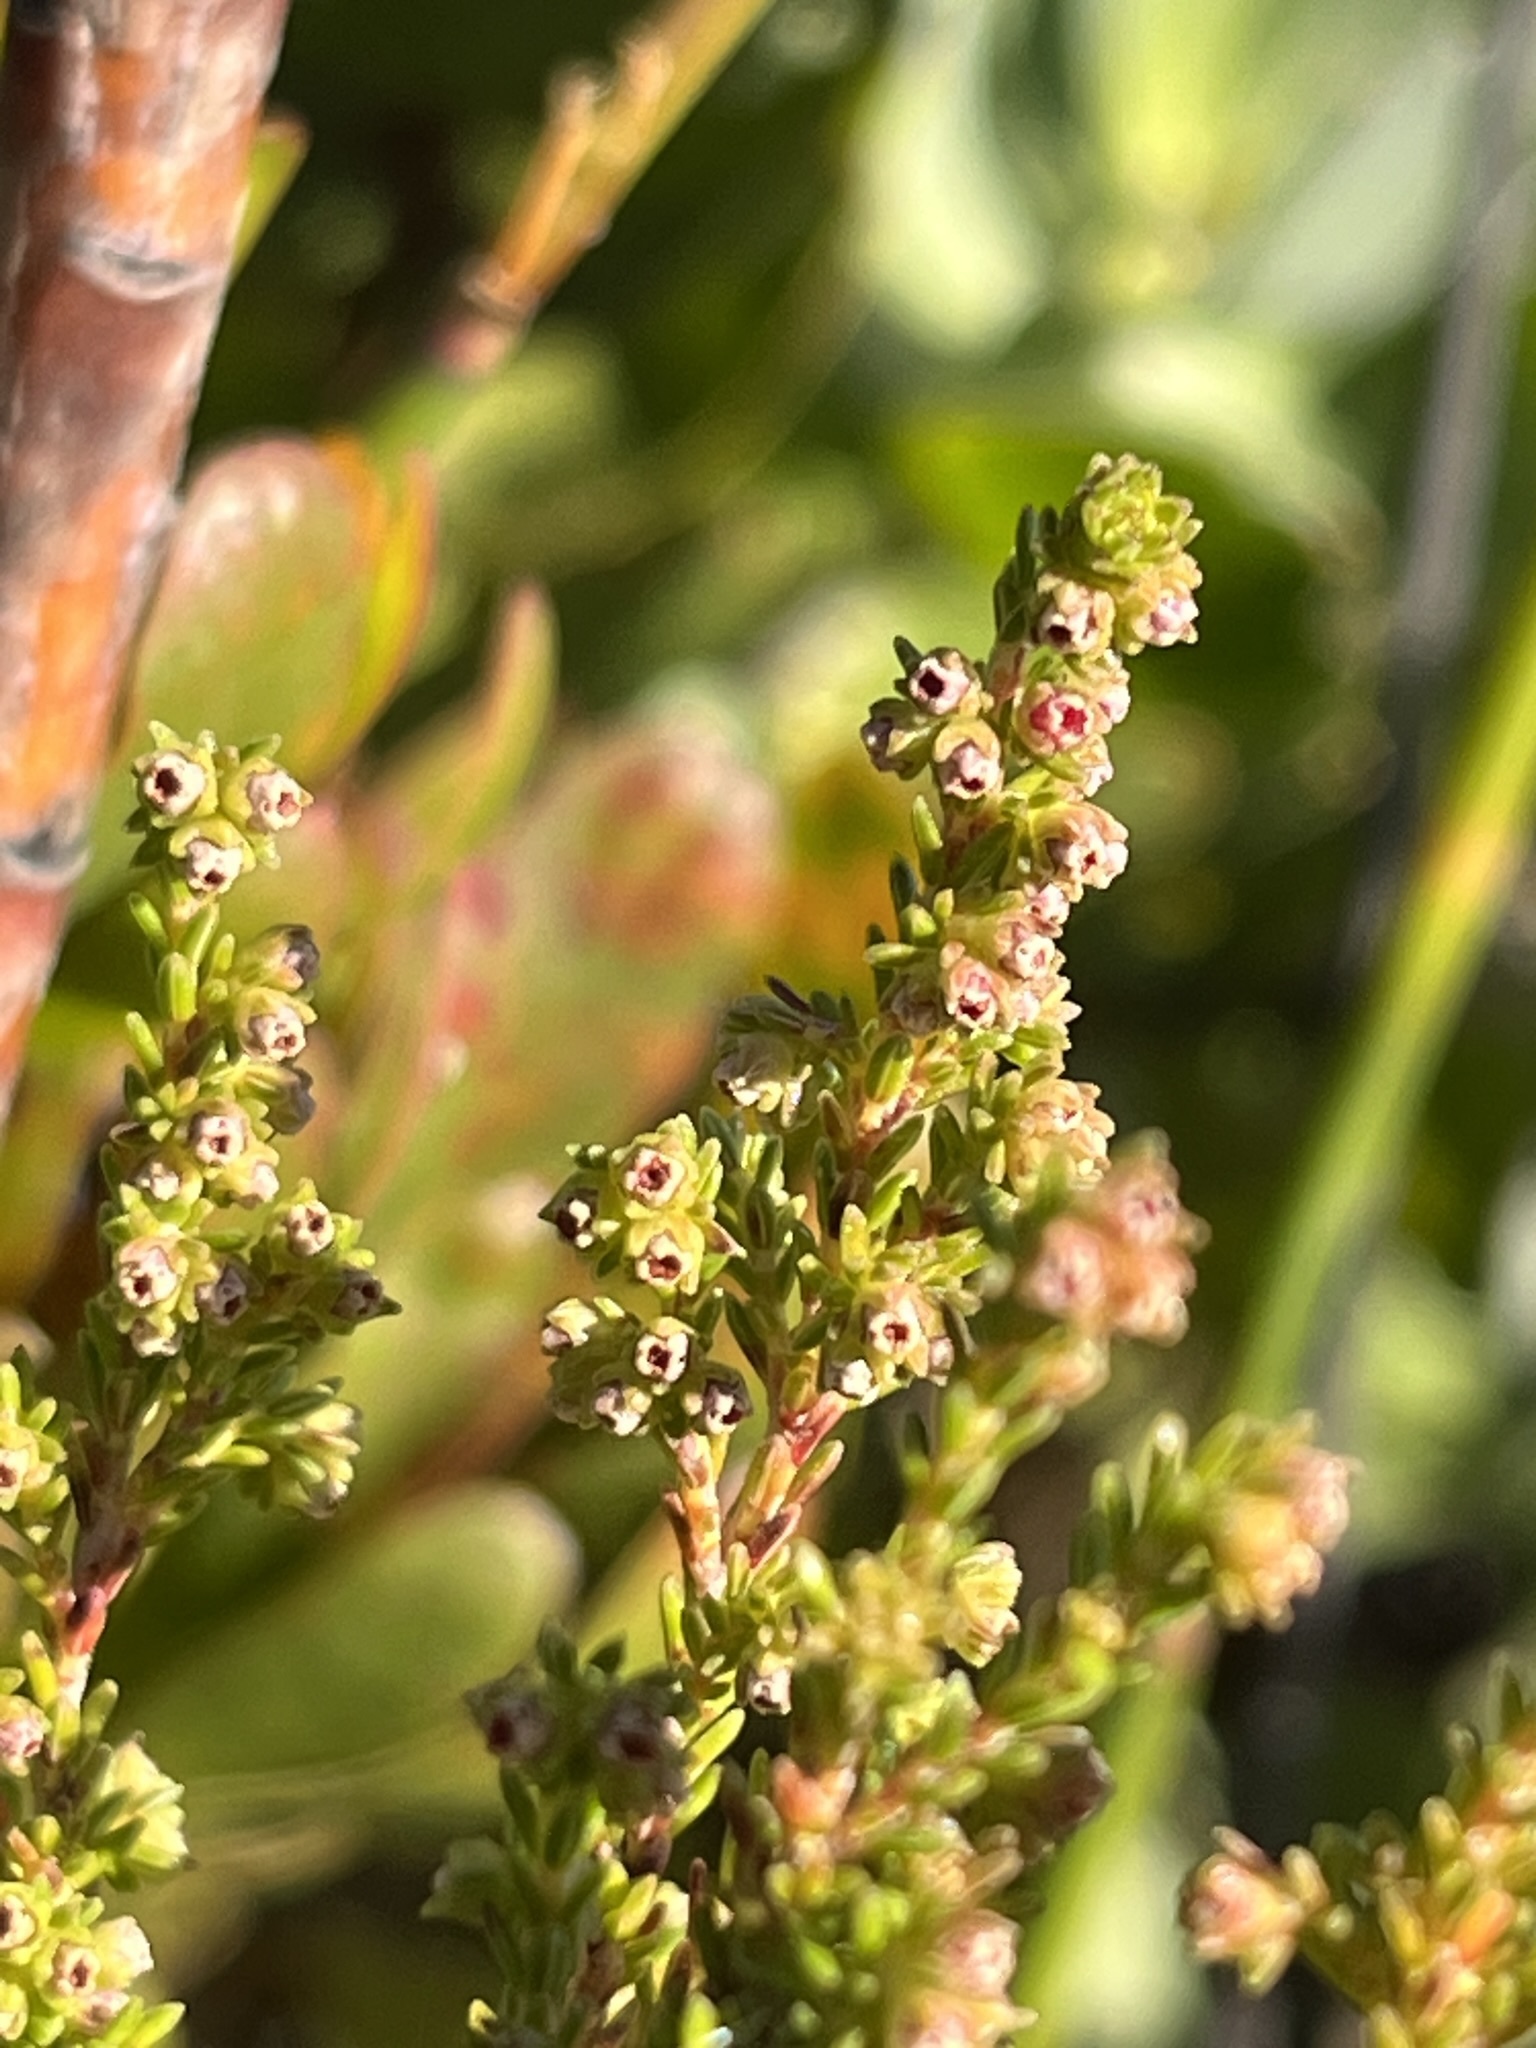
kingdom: Plantae
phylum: Tracheophyta
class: Magnoliopsida
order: Ericales
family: Ericaceae
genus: Erica
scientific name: Erica serrata
